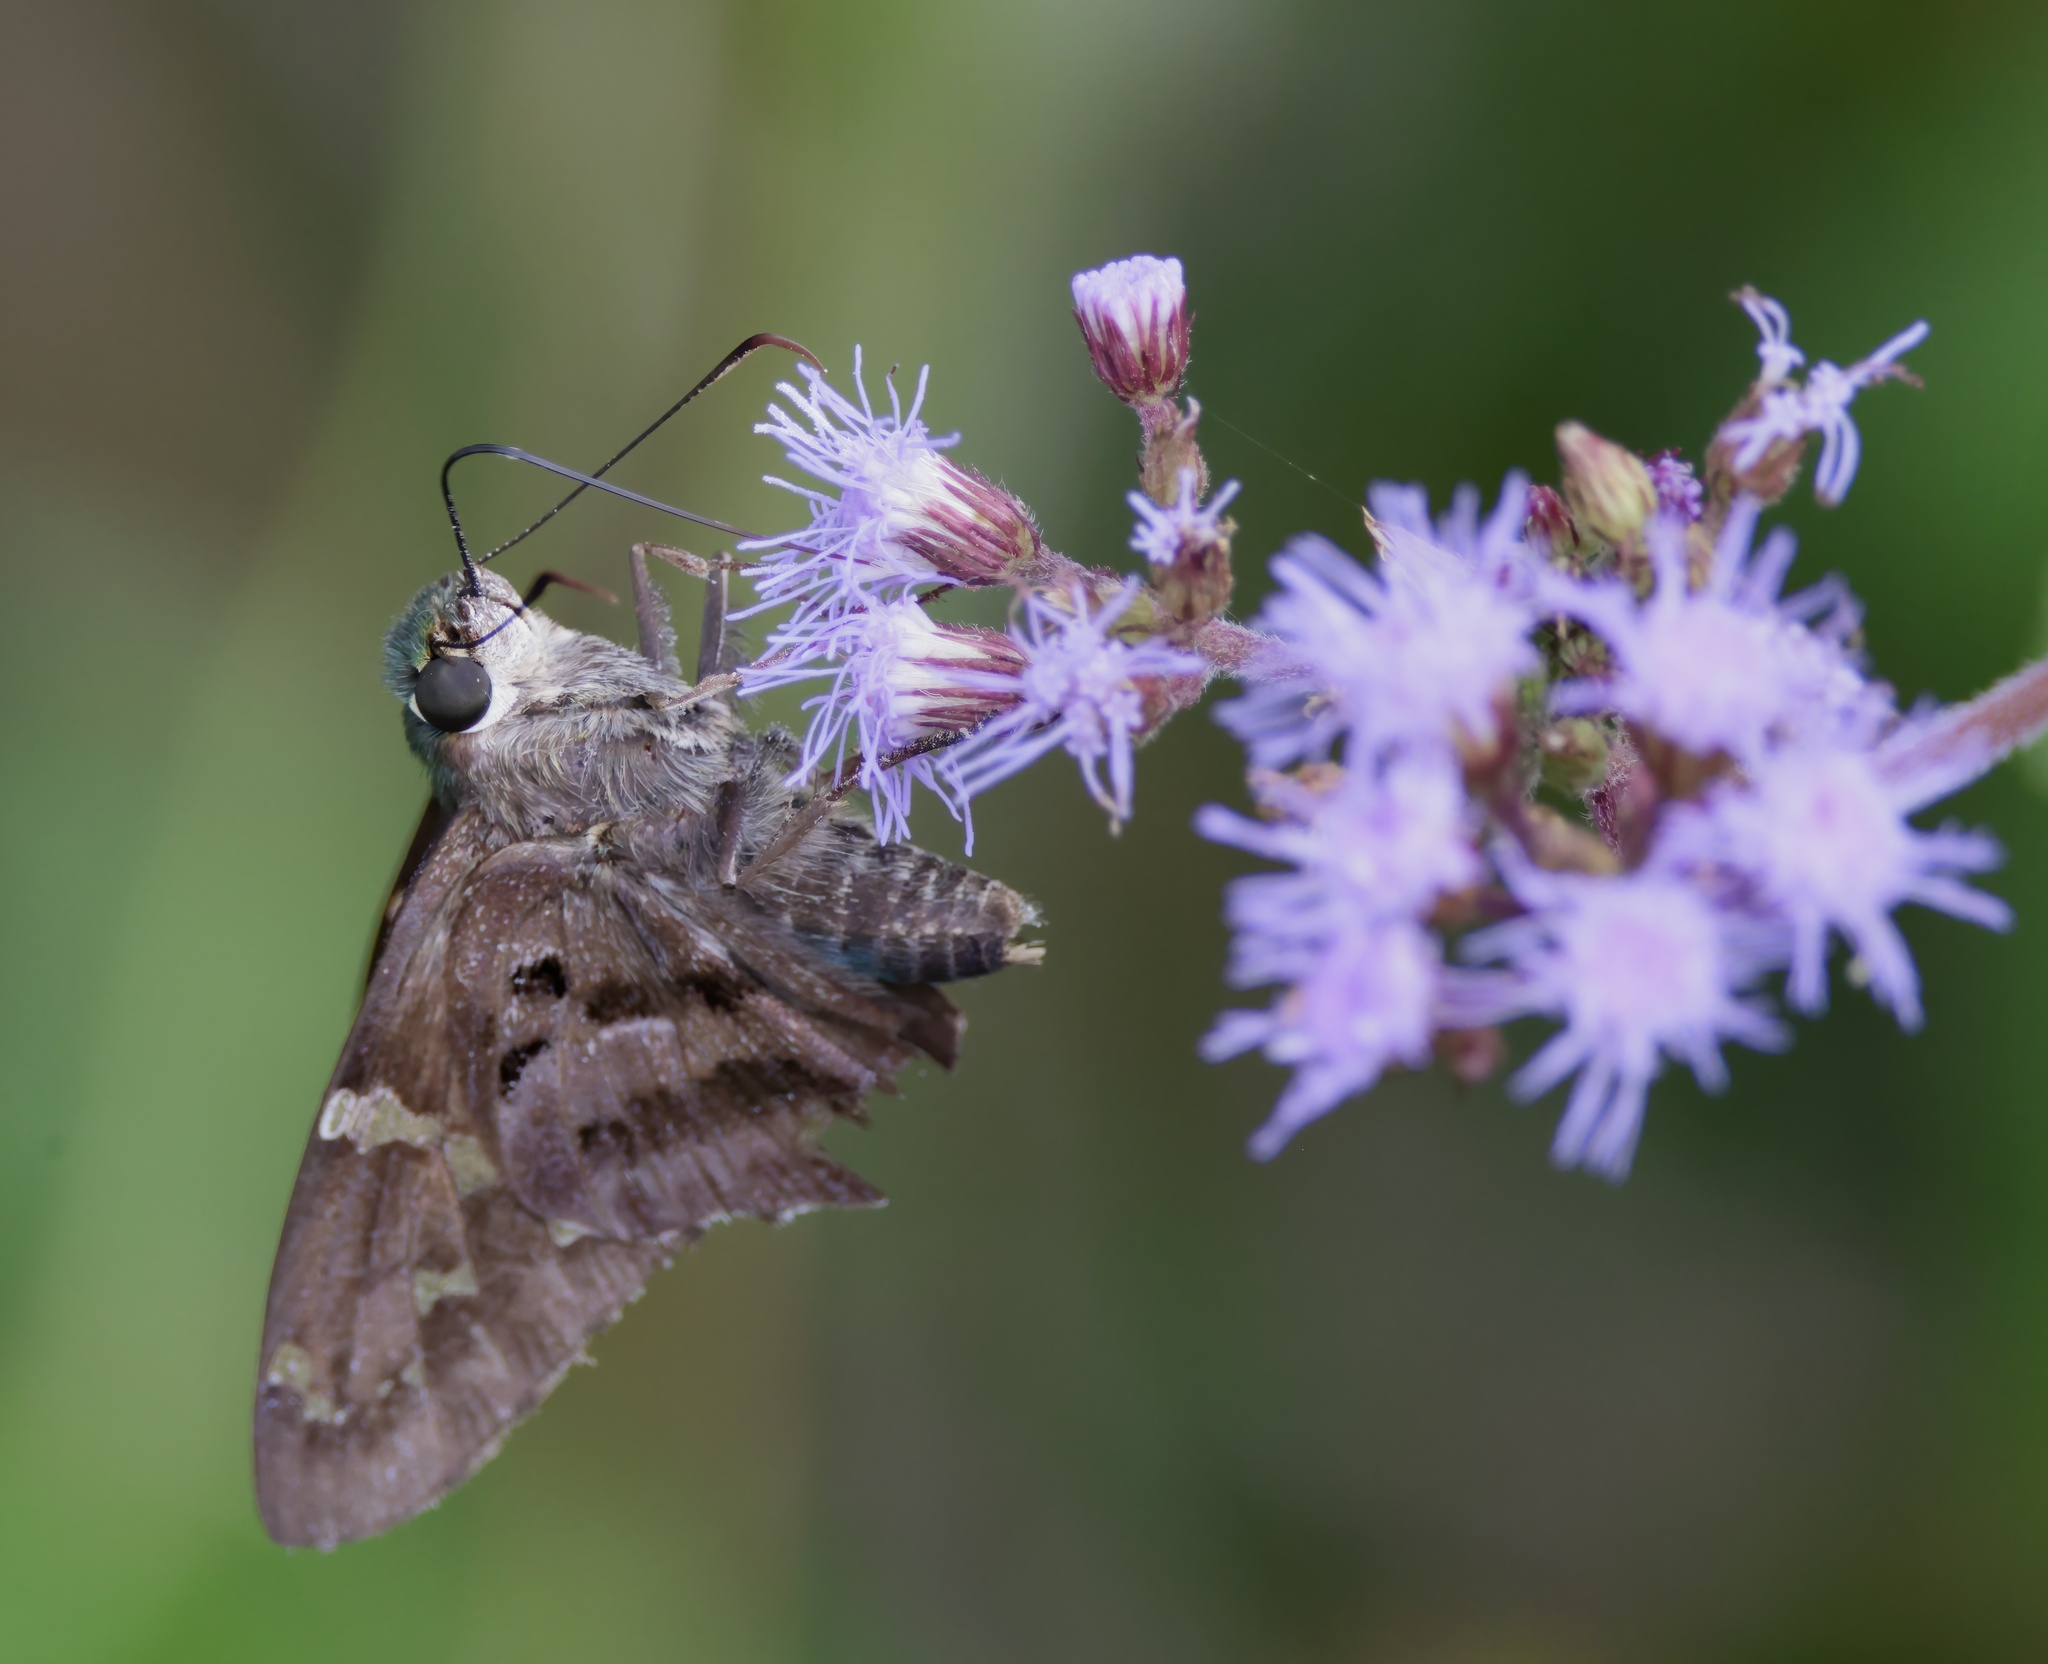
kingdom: Animalia
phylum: Arthropoda
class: Insecta
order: Lepidoptera
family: Hesperiidae
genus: Urbanus
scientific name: Urbanus proteus
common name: Long-tailed skipper
